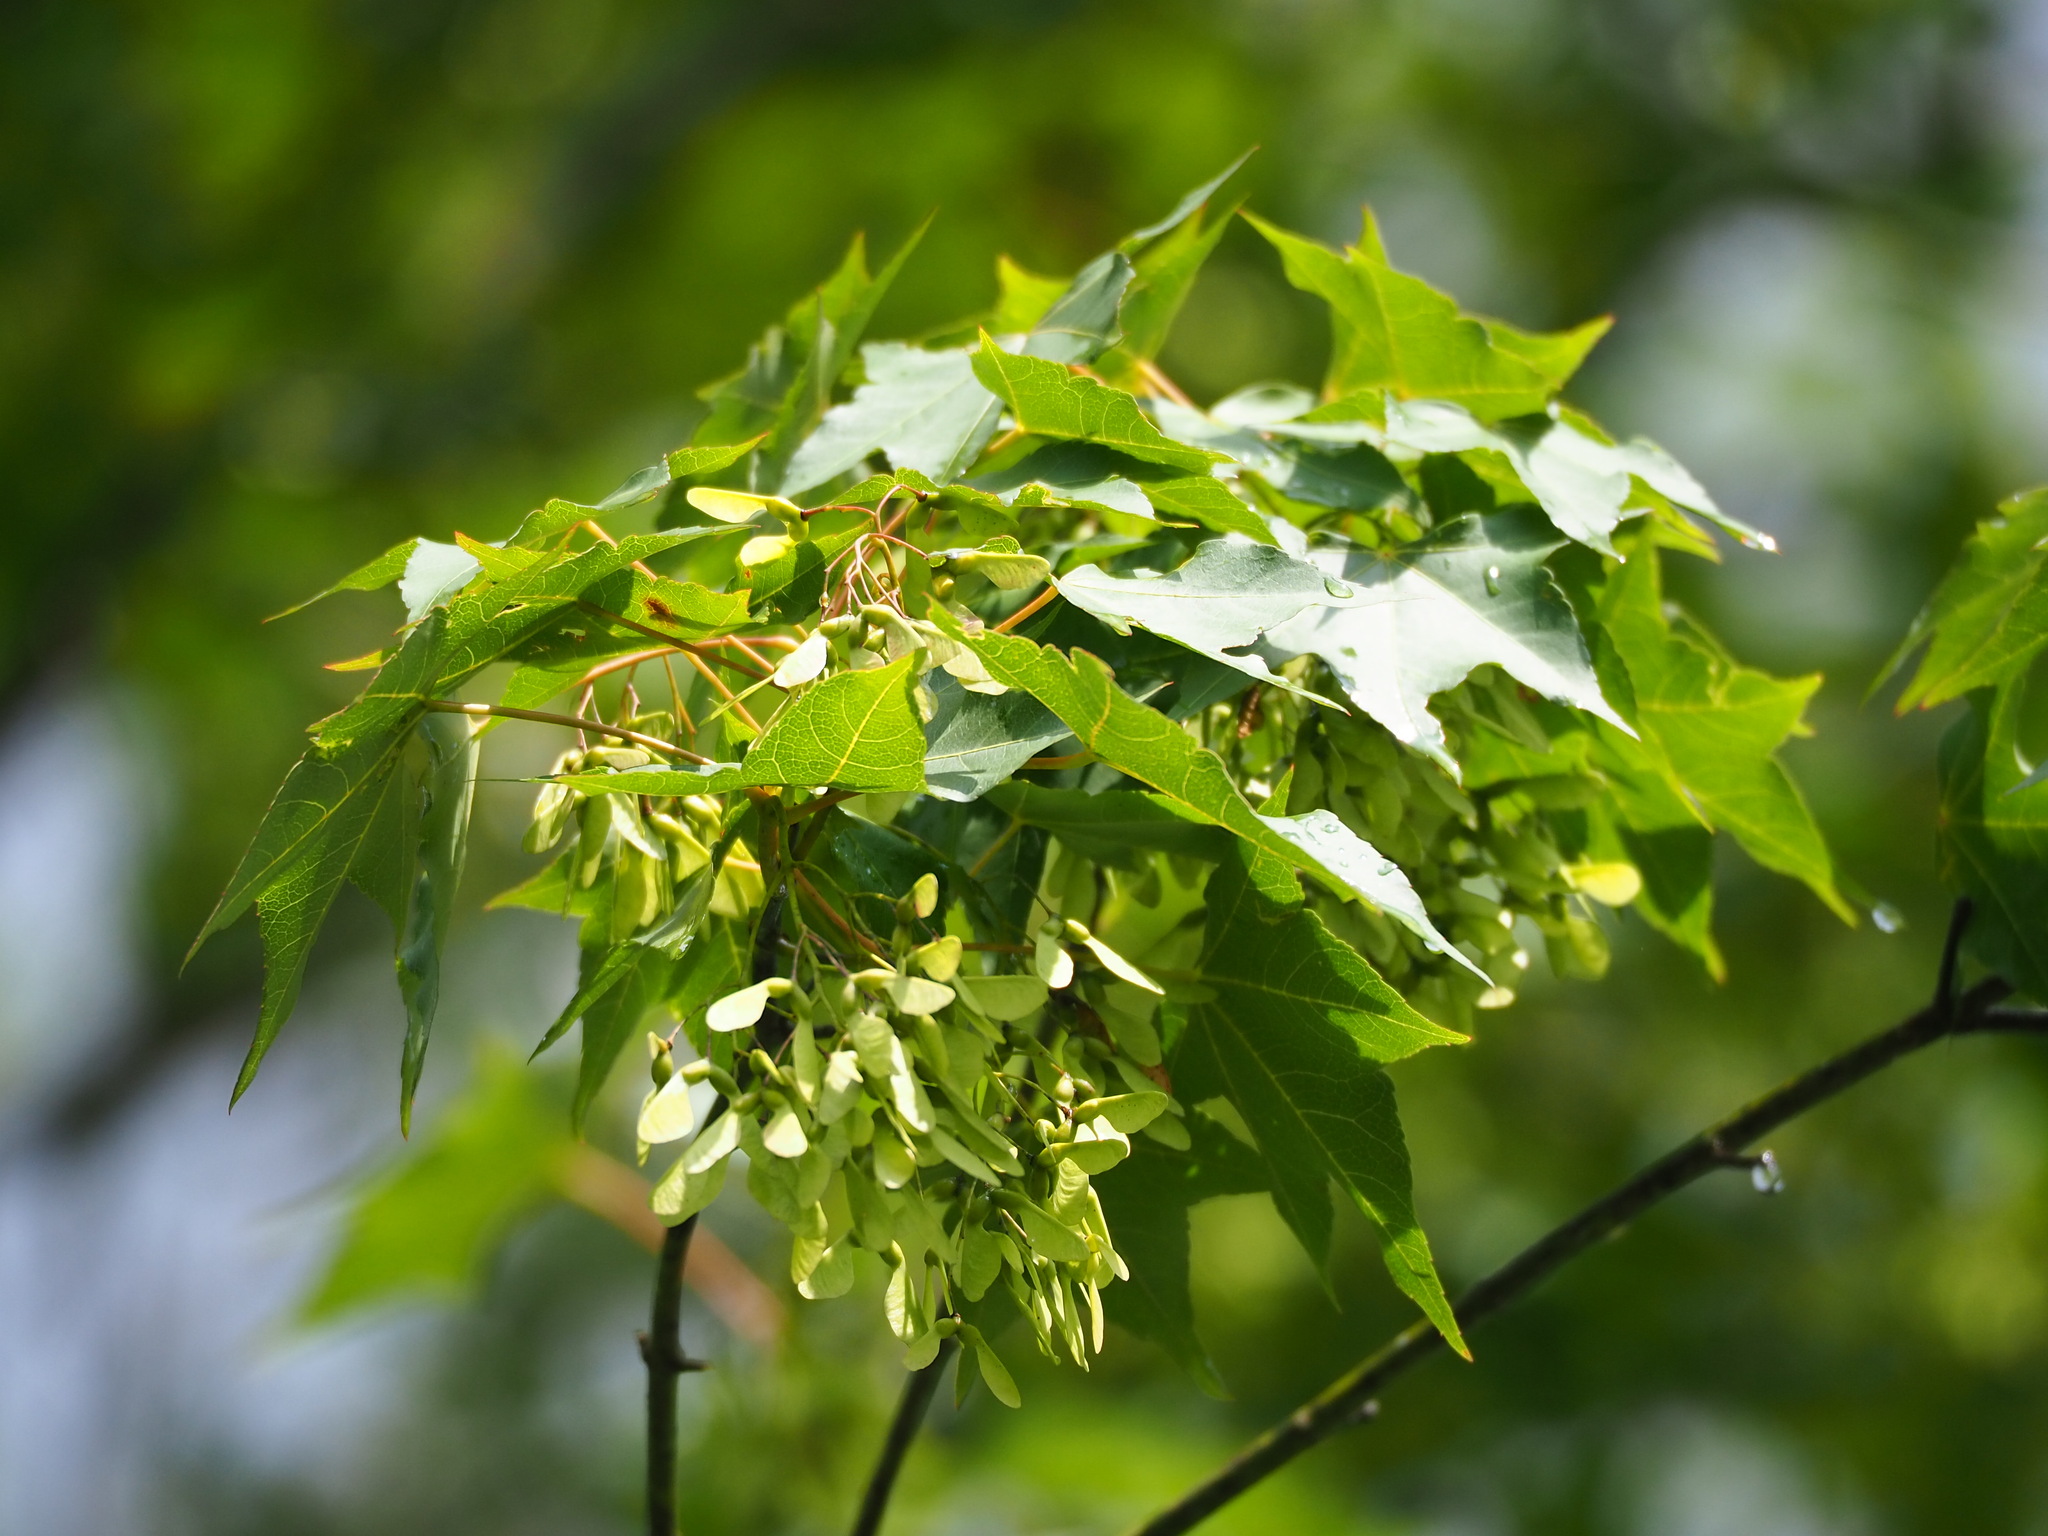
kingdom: Plantae
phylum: Tracheophyta
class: Magnoliopsida
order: Sapindales
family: Sapindaceae
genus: Acer
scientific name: Acer serrulatum
